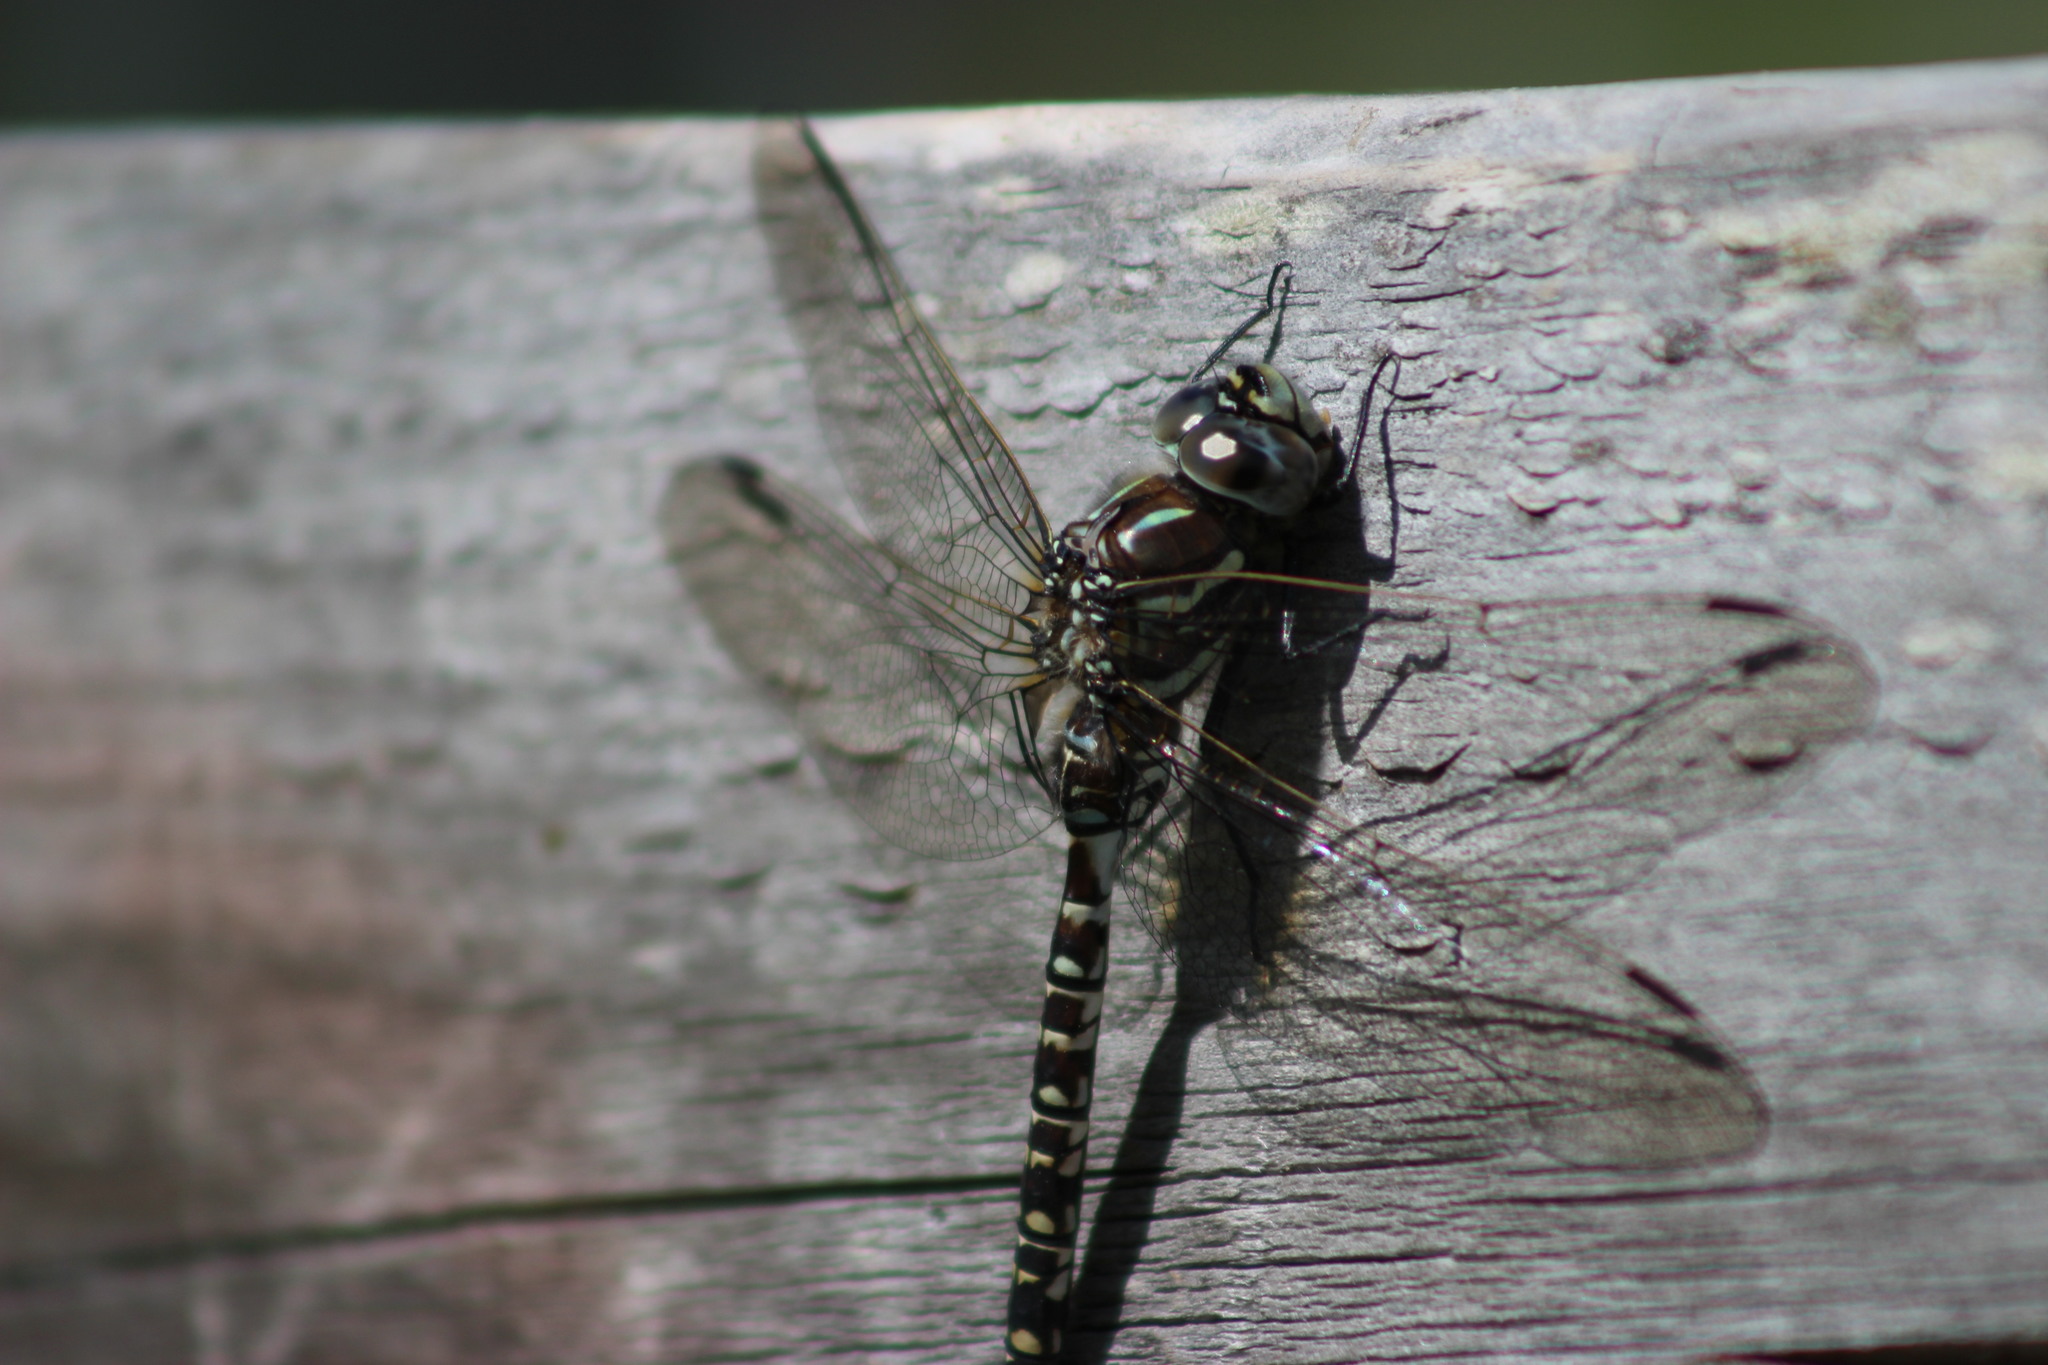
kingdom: Animalia
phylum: Arthropoda
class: Insecta
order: Odonata
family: Aeshnidae
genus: Aeshna
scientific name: Aeshna subarctica
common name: Subarctic darner
